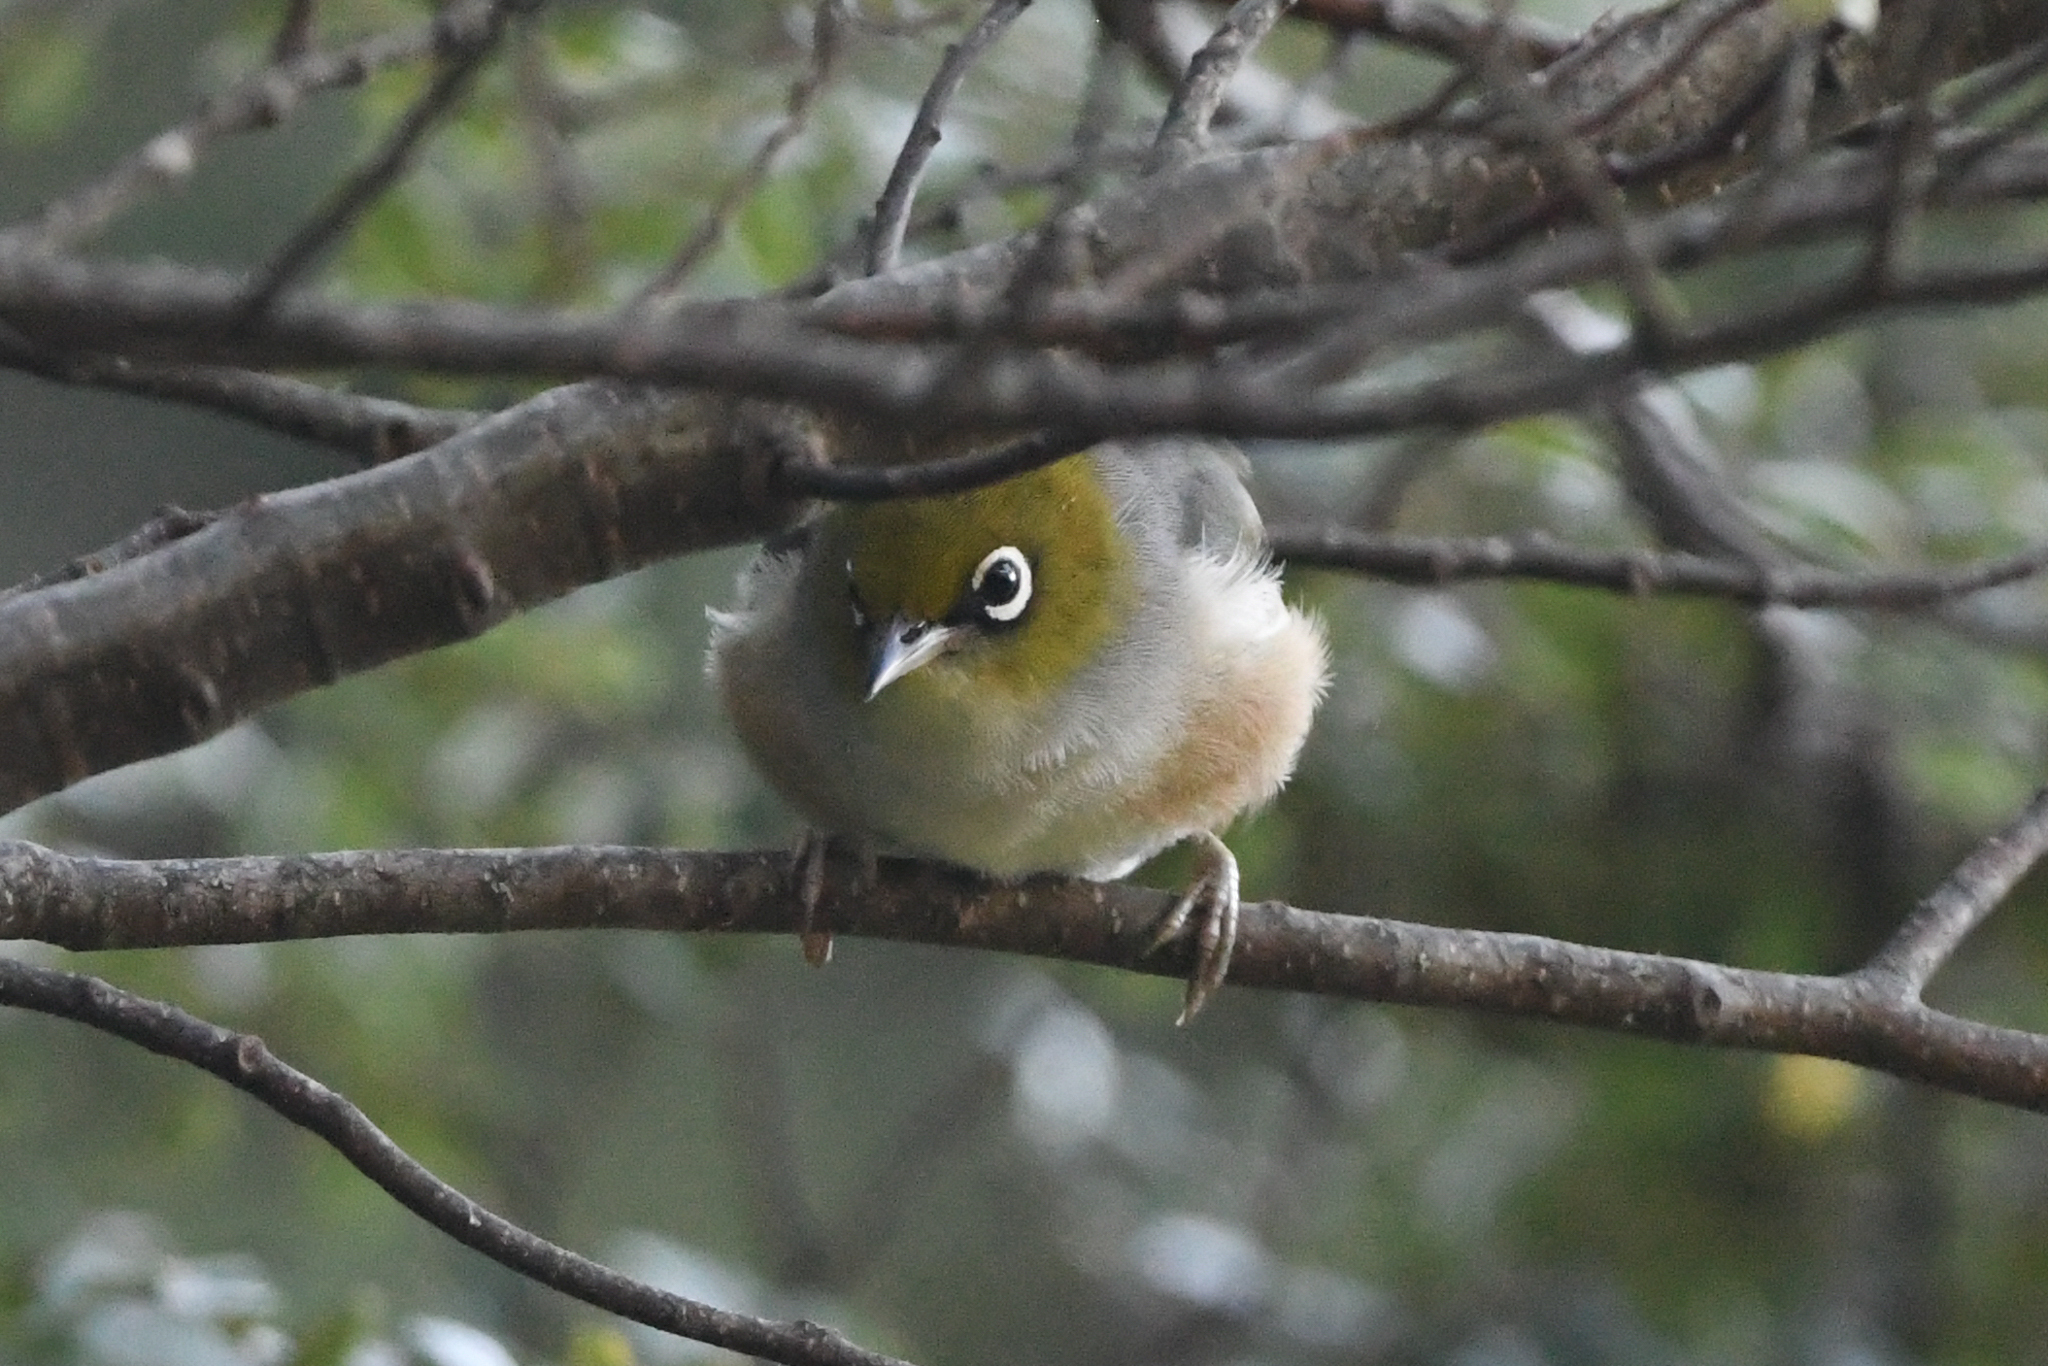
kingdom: Animalia
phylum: Chordata
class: Aves
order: Passeriformes
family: Zosteropidae
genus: Zosterops
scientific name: Zosterops lateralis
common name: Silvereye
